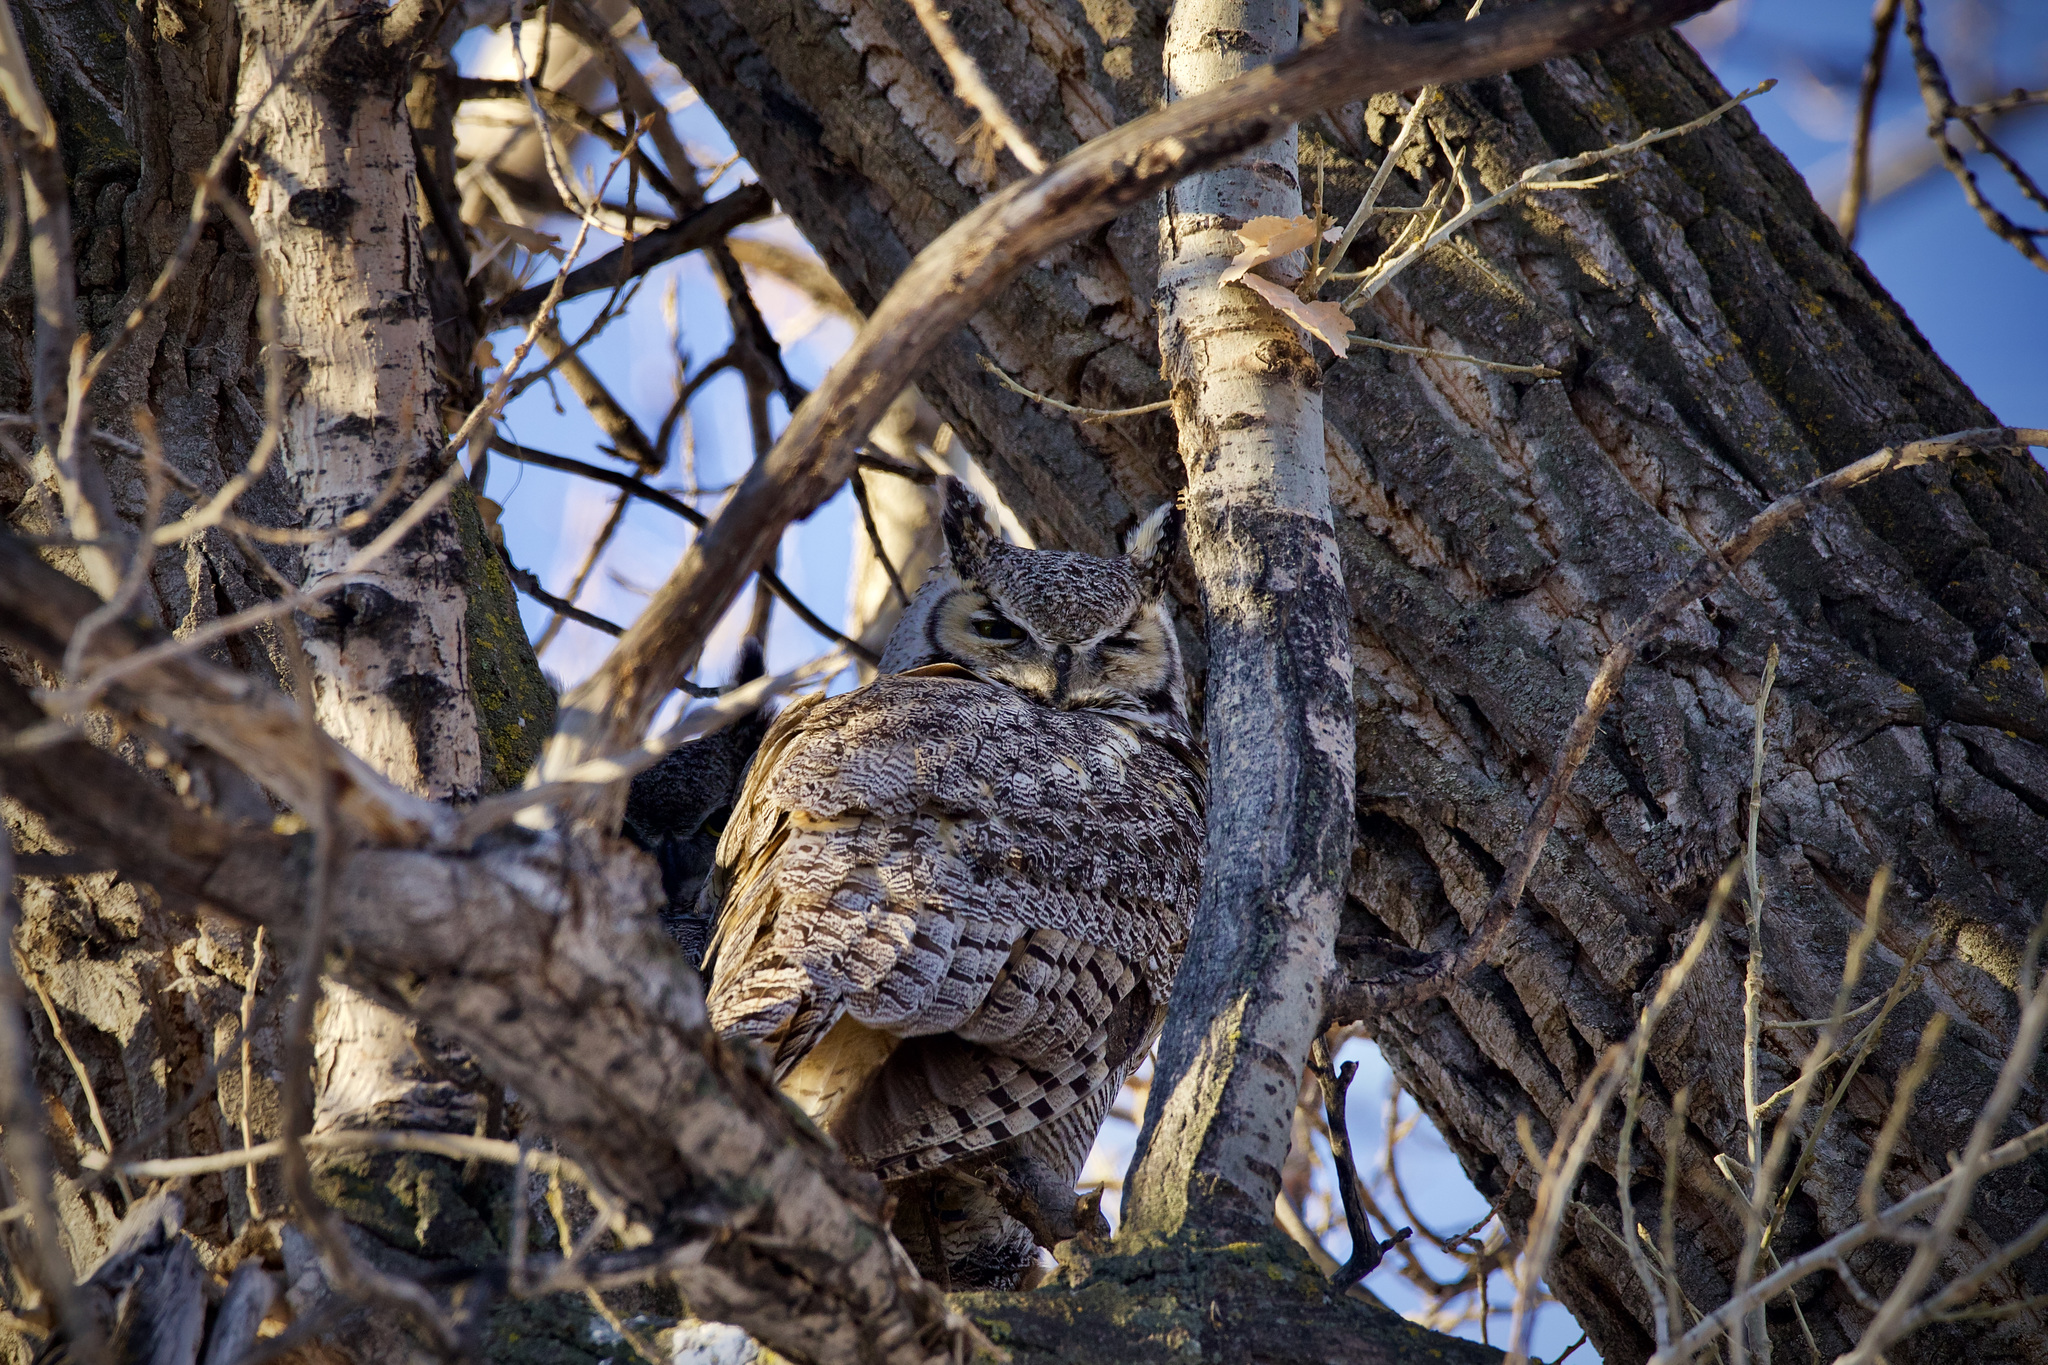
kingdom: Animalia
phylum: Chordata
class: Aves
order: Strigiformes
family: Strigidae
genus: Bubo
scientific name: Bubo virginianus
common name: Great horned owl
